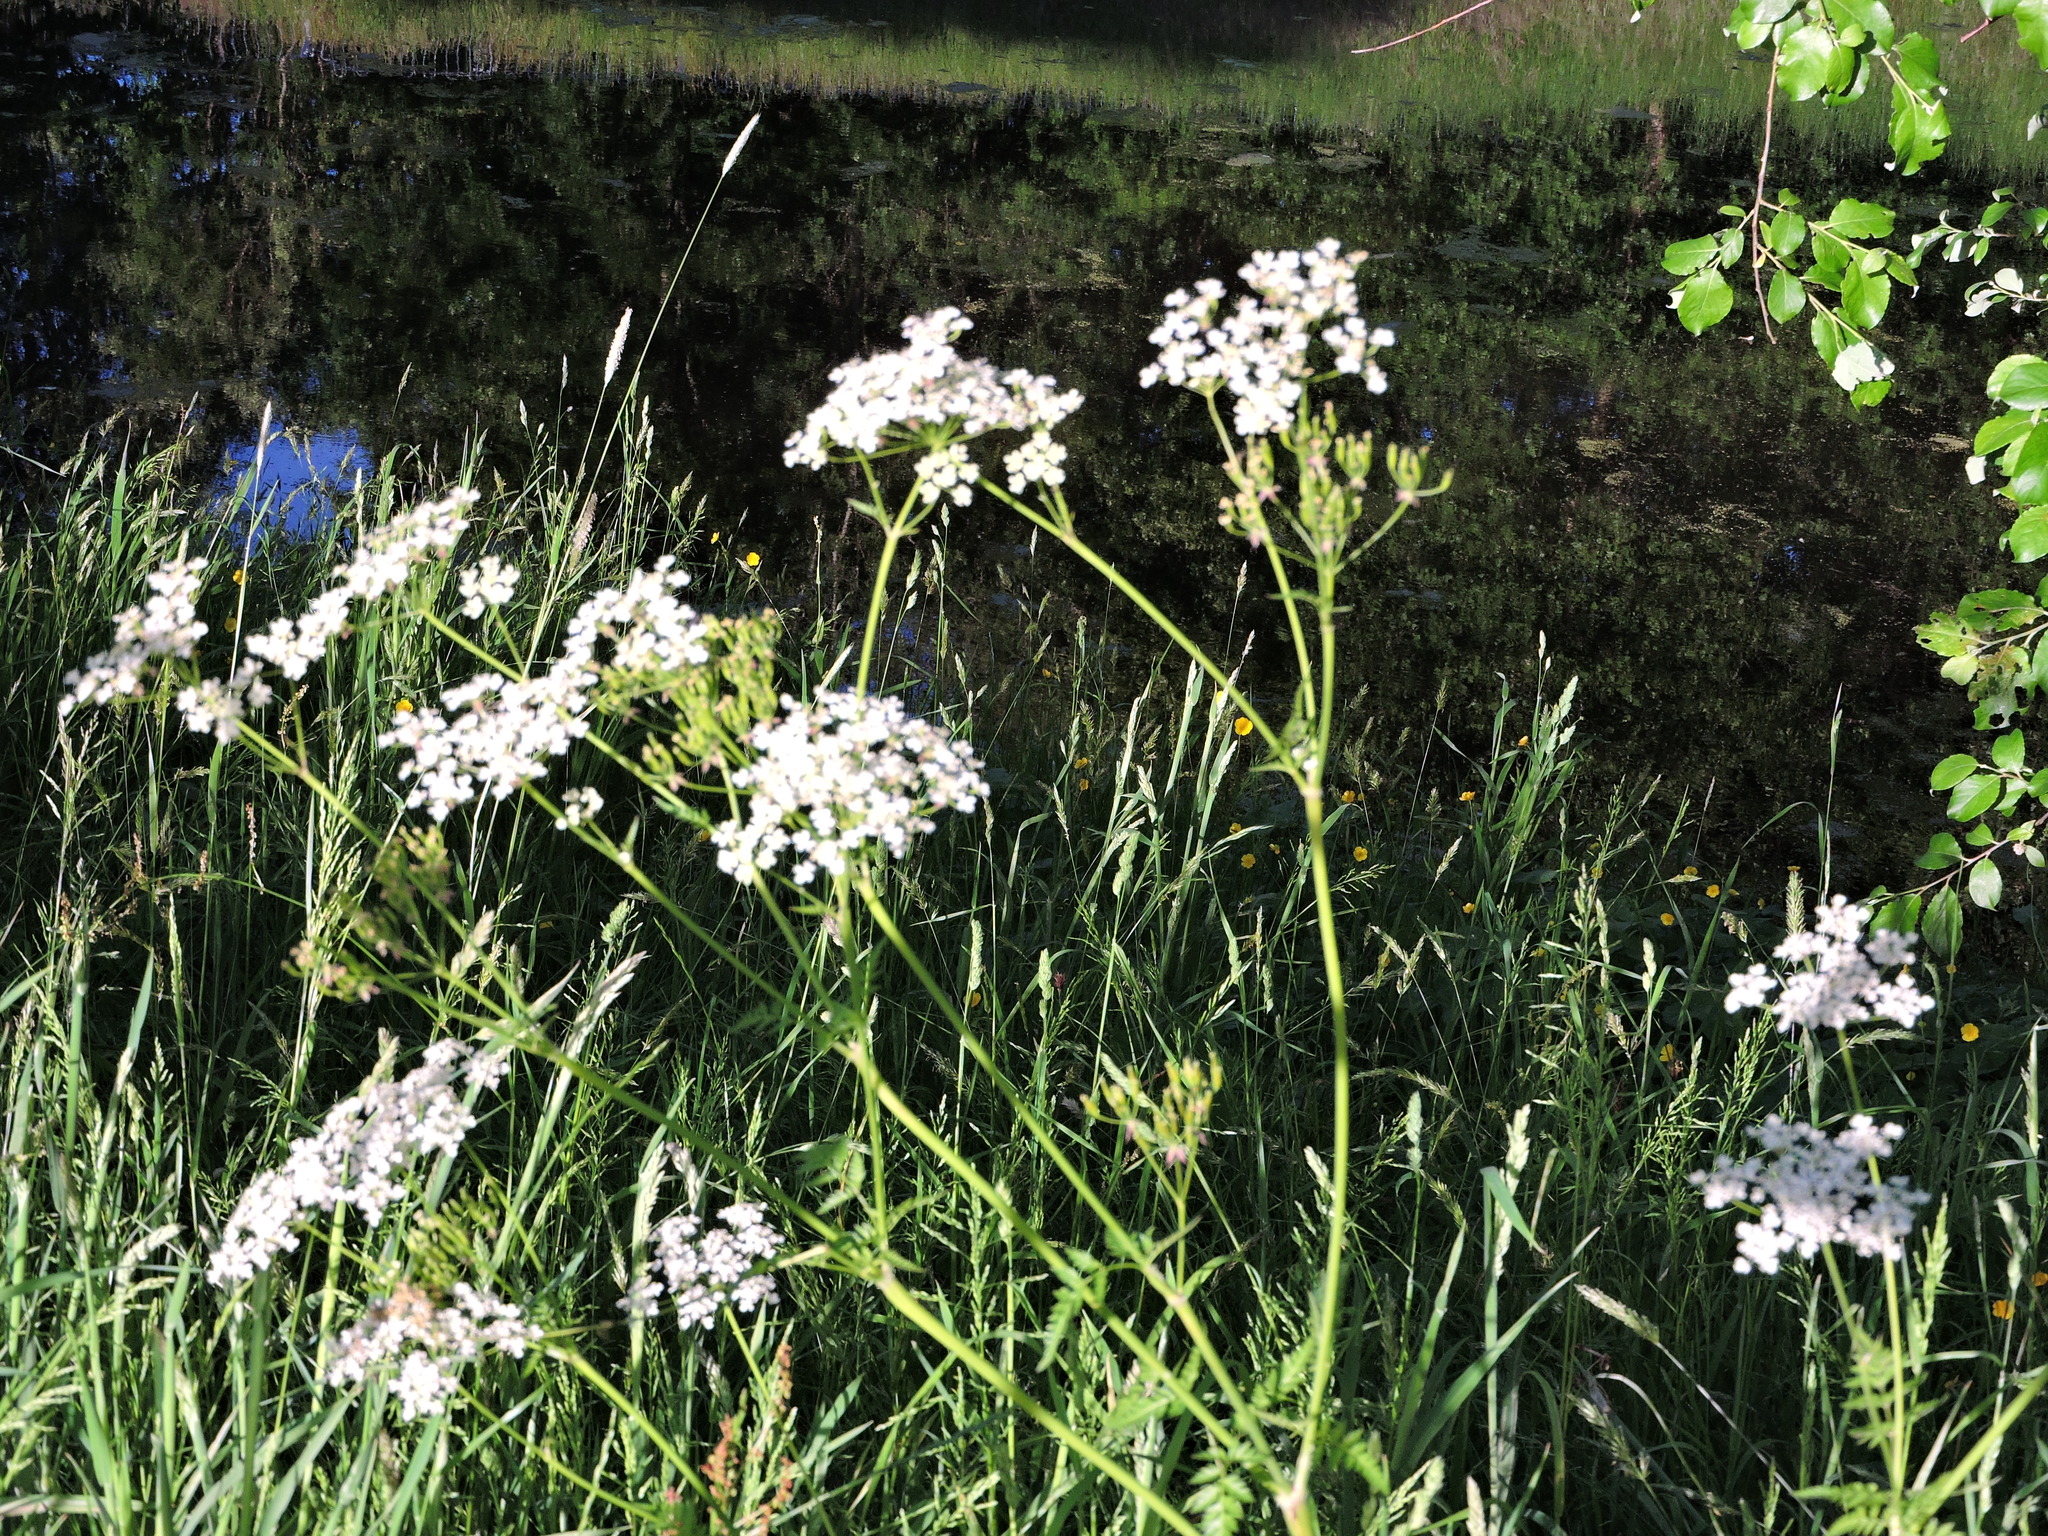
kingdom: Plantae
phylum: Tracheophyta
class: Magnoliopsida
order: Apiales
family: Apiaceae
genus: Anthriscus
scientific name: Anthriscus sylvestris
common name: Cow parsley
